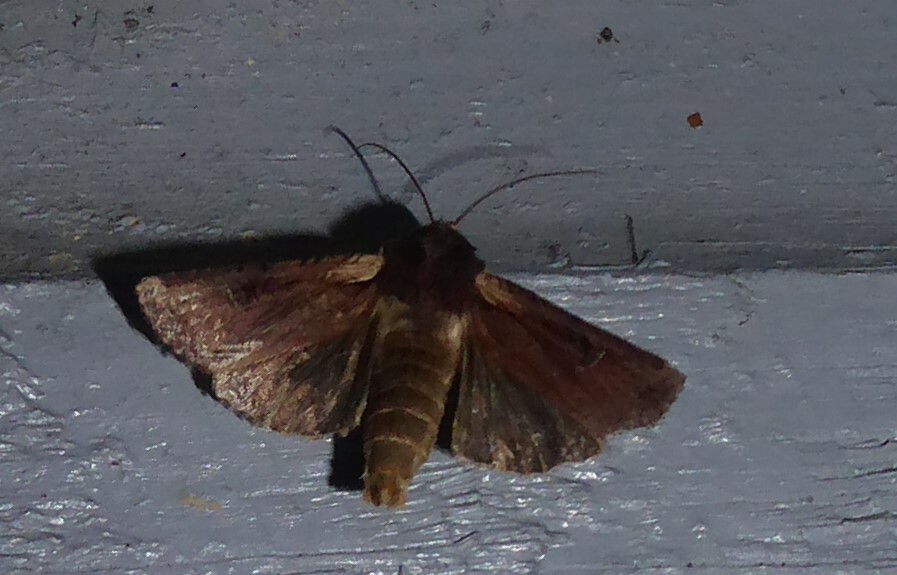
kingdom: Animalia
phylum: Arthropoda
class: Insecta
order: Lepidoptera
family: Noctuidae
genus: Ichneutica
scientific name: Ichneutica omoplaca
